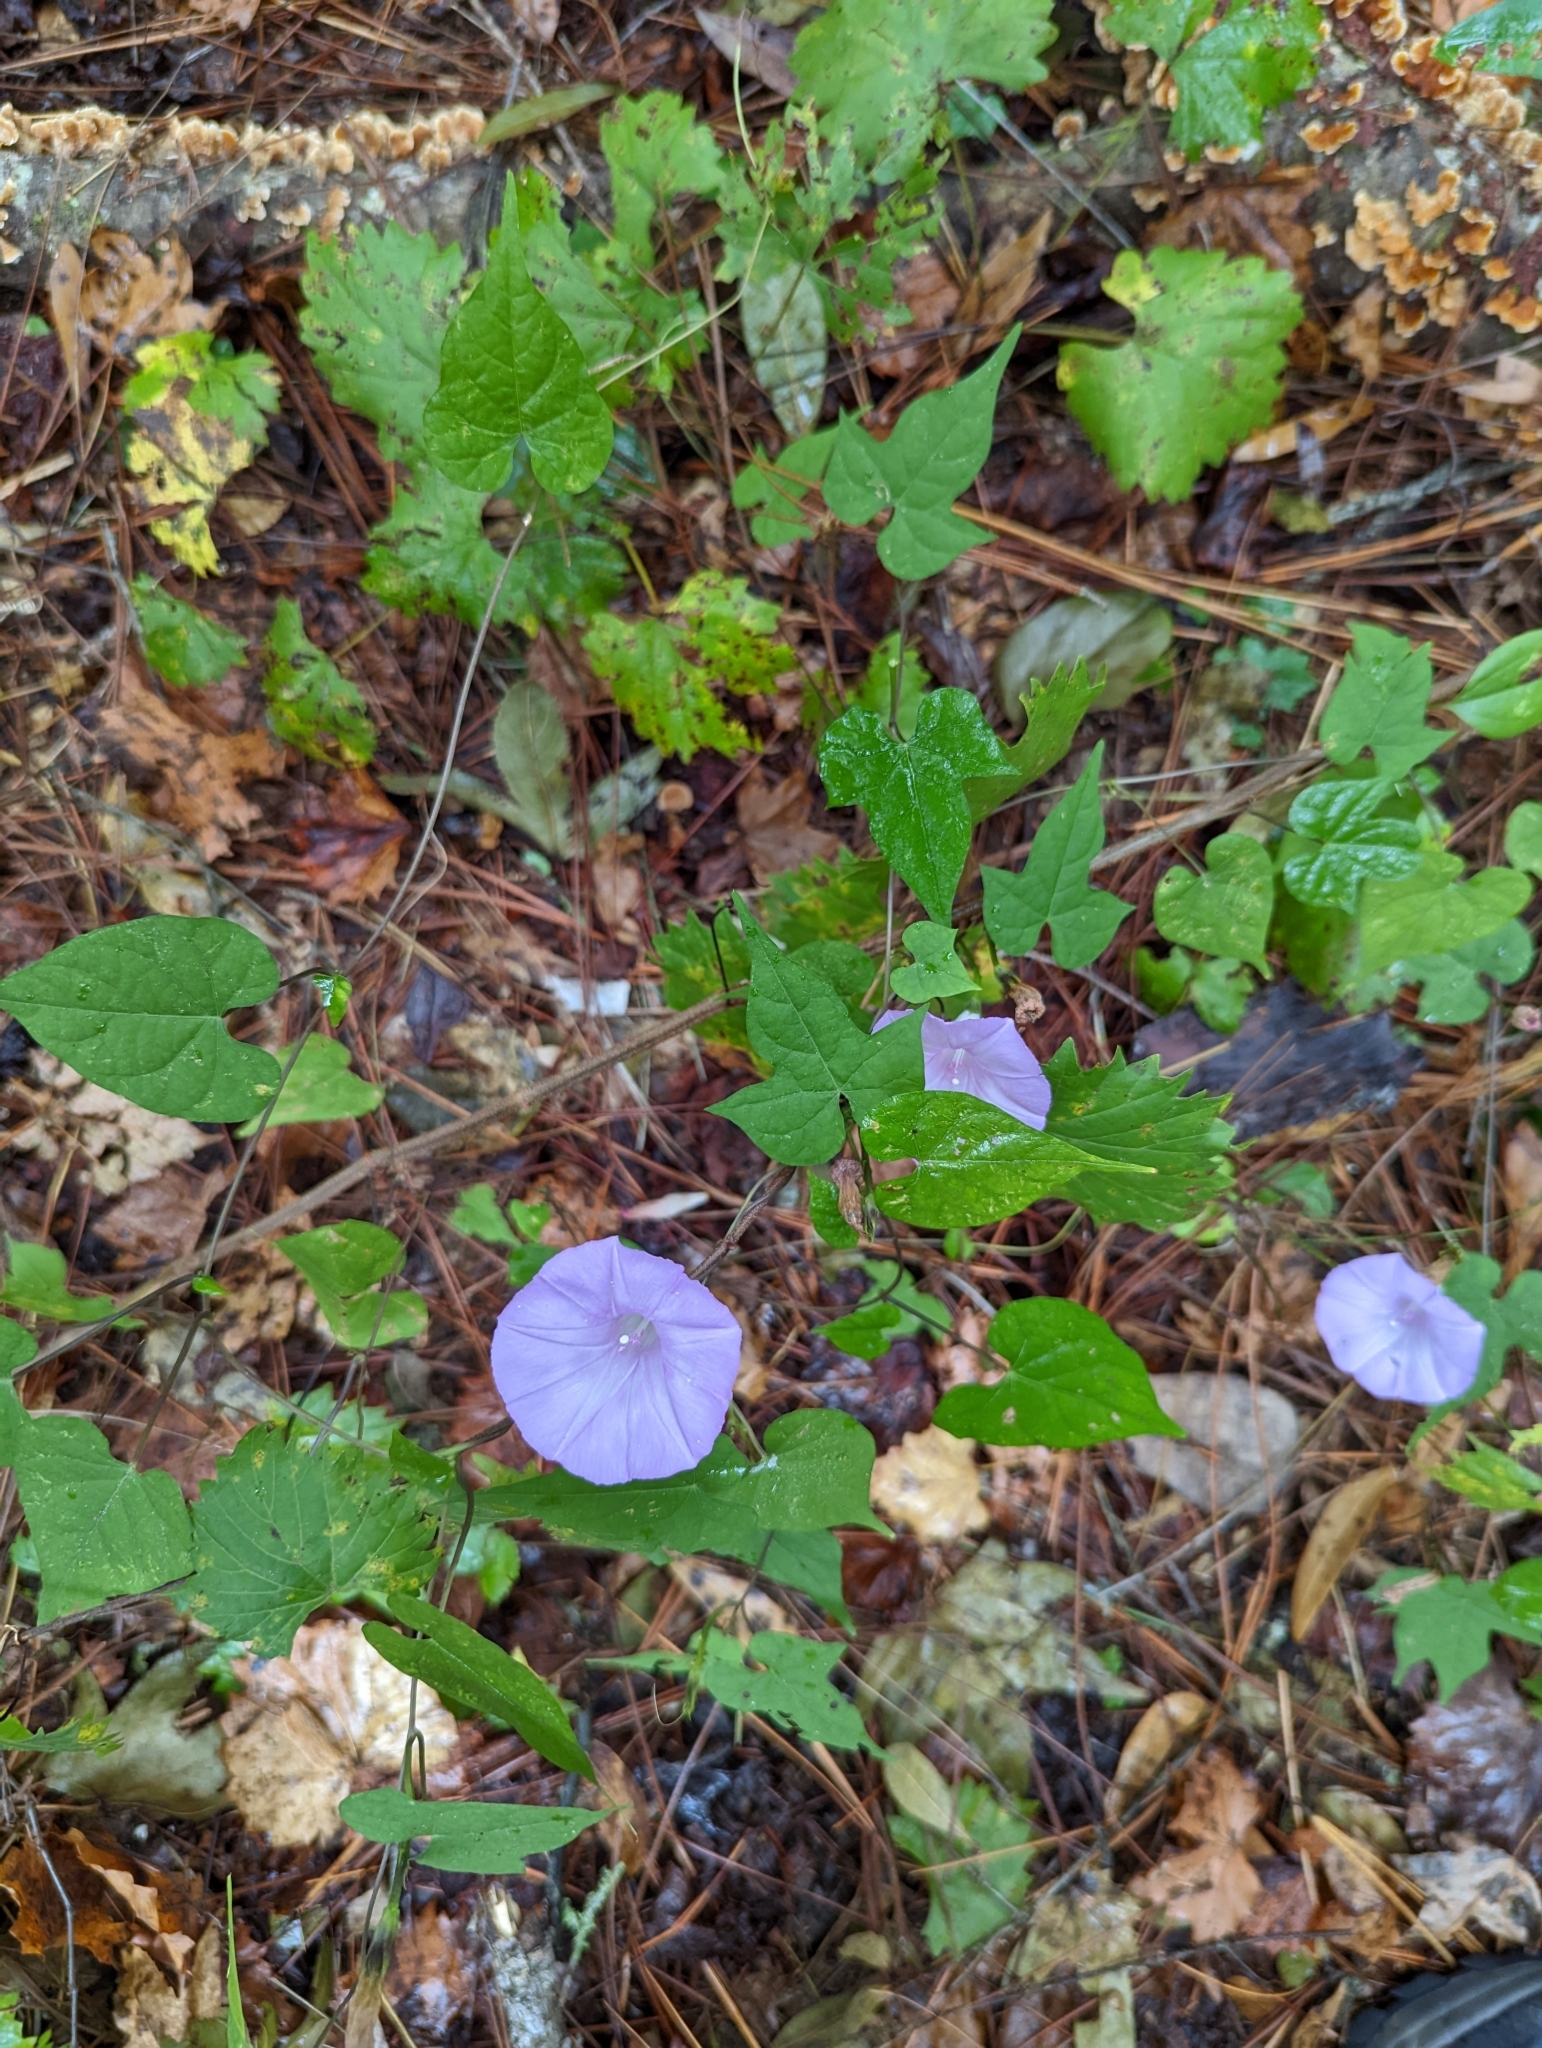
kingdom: Plantae
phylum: Tracheophyta
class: Magnoliopsida
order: Solanales
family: Convolvulaceae
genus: Ipomoea
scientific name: Ipomoea cordatotriloba
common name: Cotton morning glory
